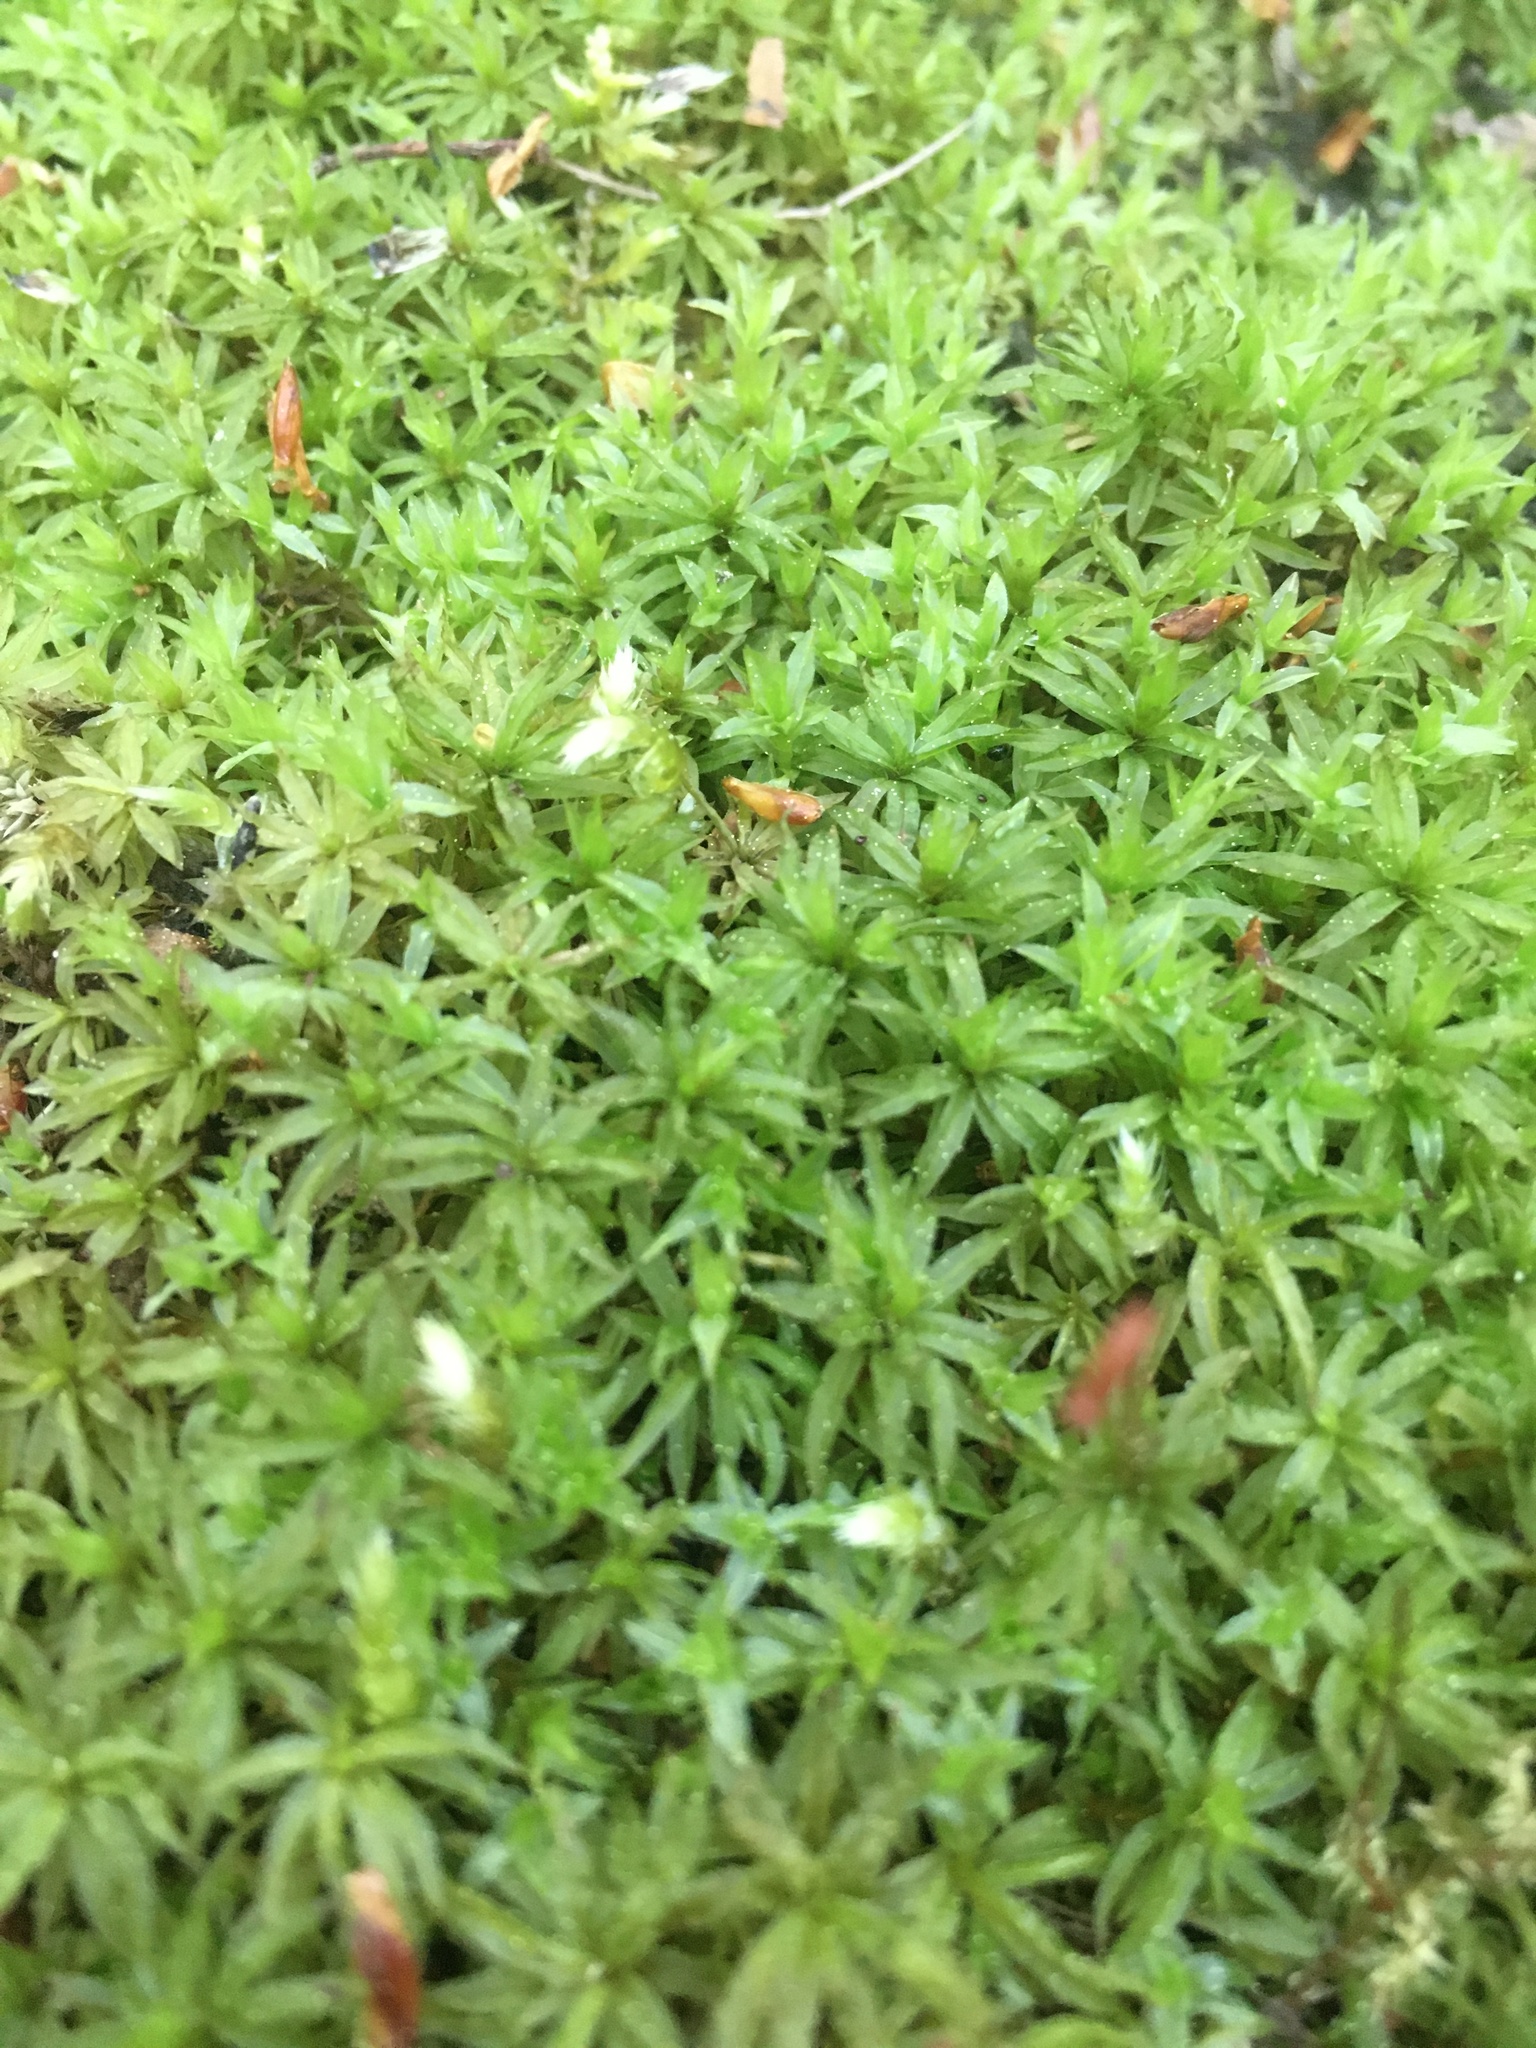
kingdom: Plantae
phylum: Bryophyta
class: Polytrichopsida
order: Polytrichales
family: Polytrichaceae
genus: Atrichum
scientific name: Atrichum undulatum
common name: Common smoothcap
